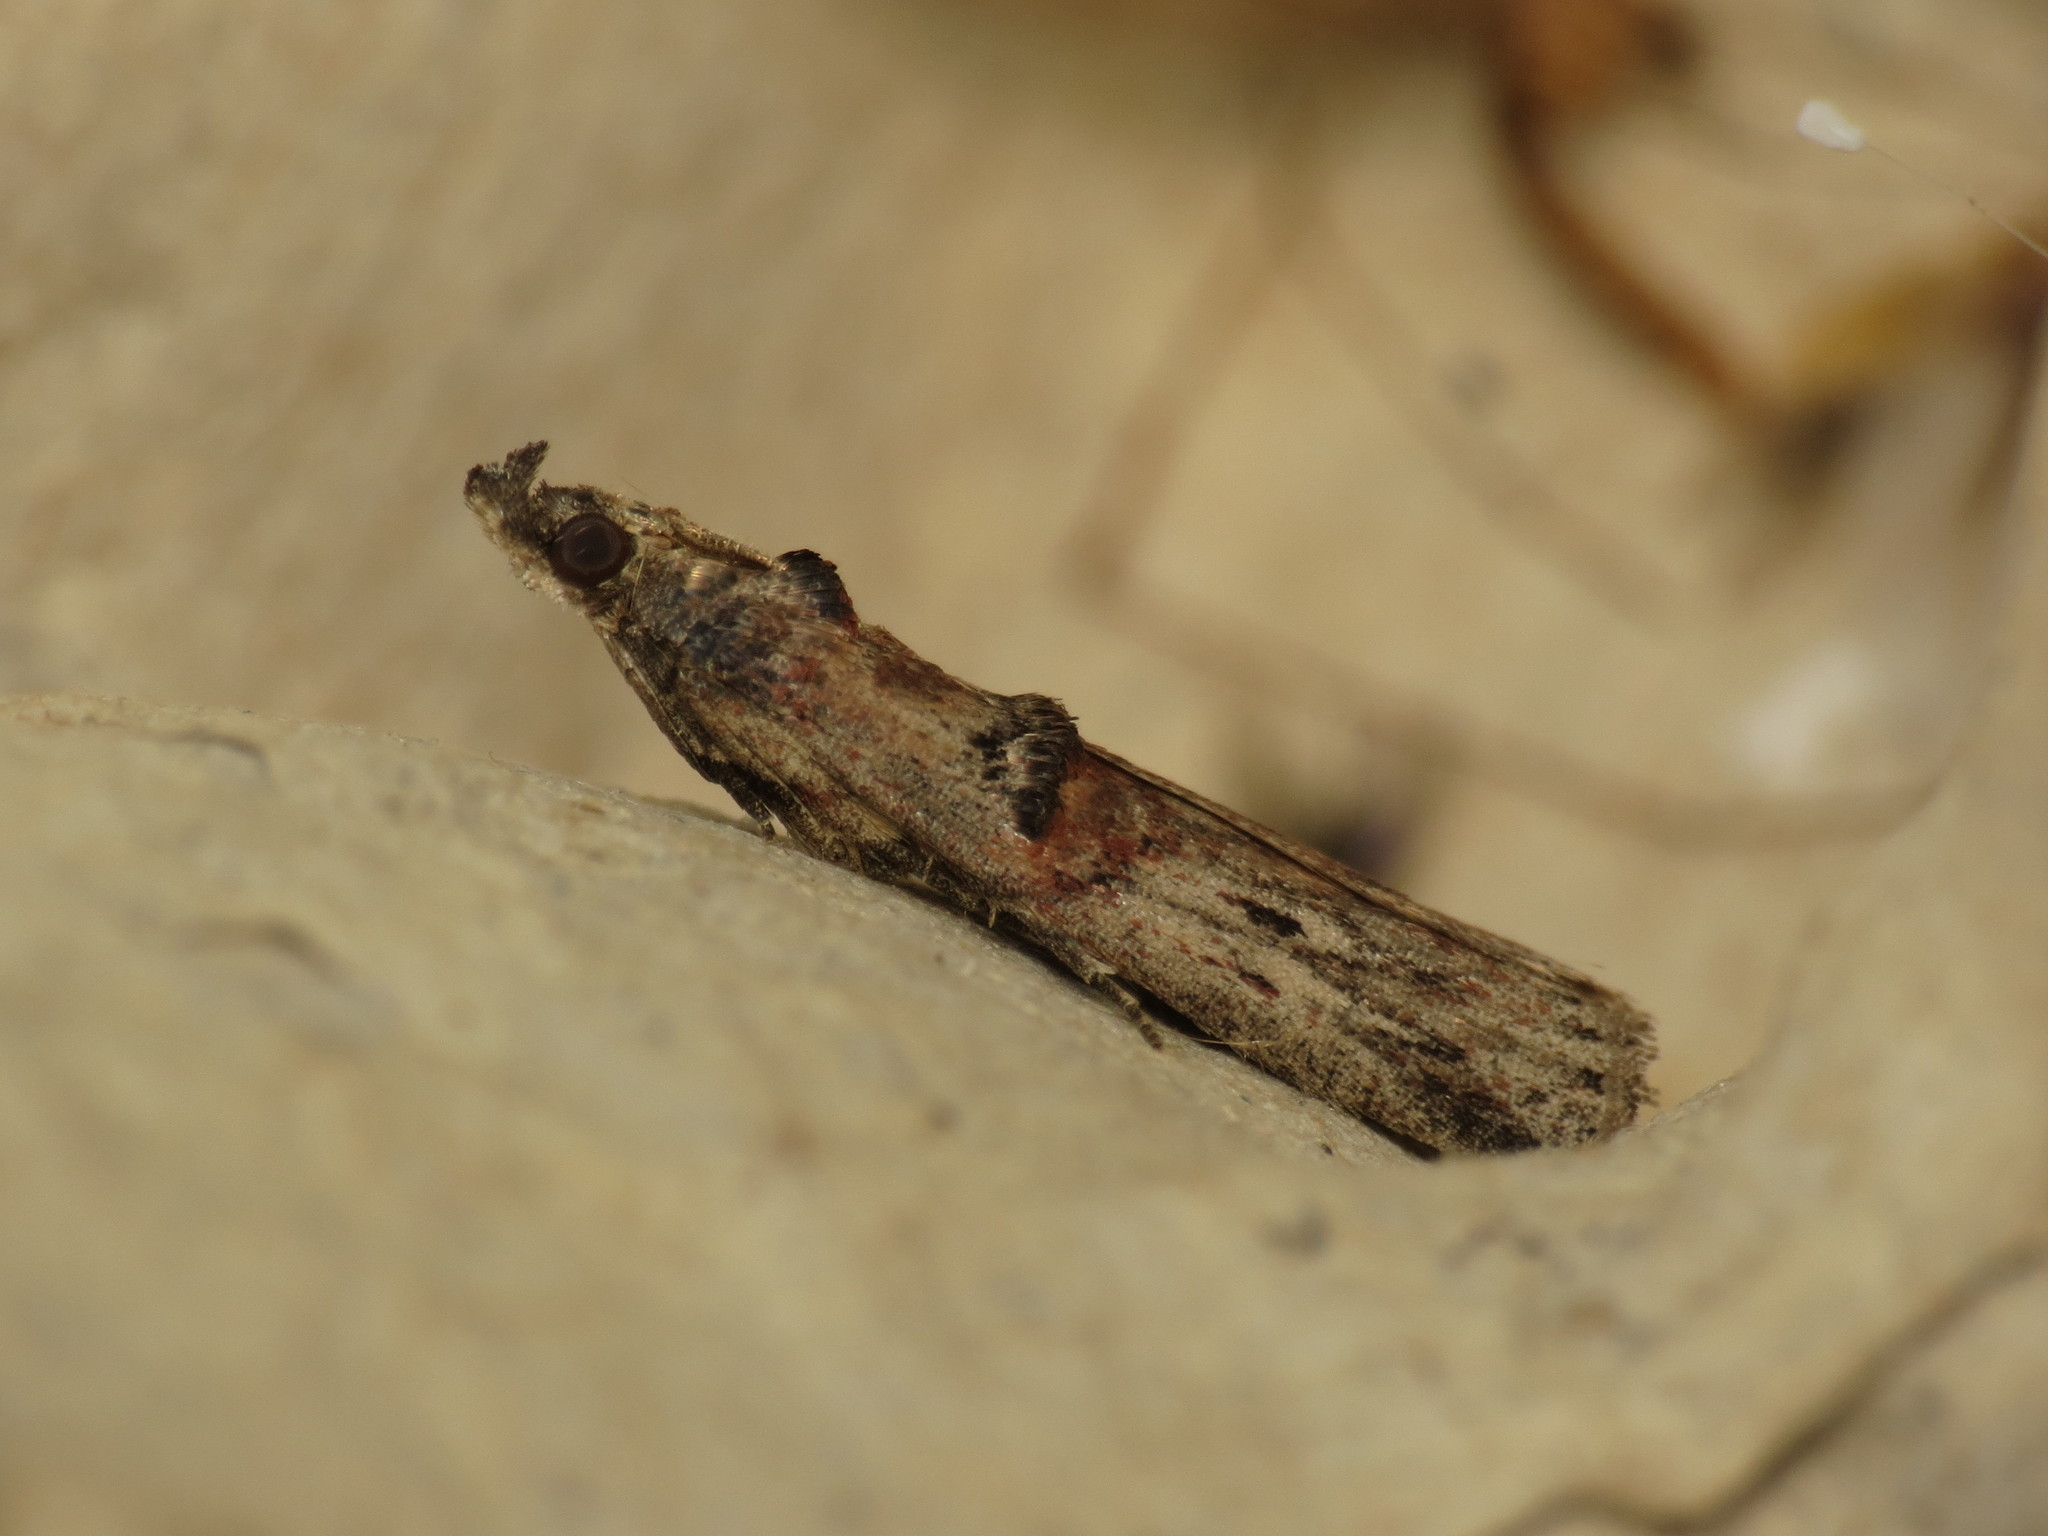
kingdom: Animalia
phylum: Arthropoda
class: Insecta
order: Lepidoptera
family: Pyralidae
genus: Nephopterix
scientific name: Nephopterix angustella
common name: Spindle knot-horn
